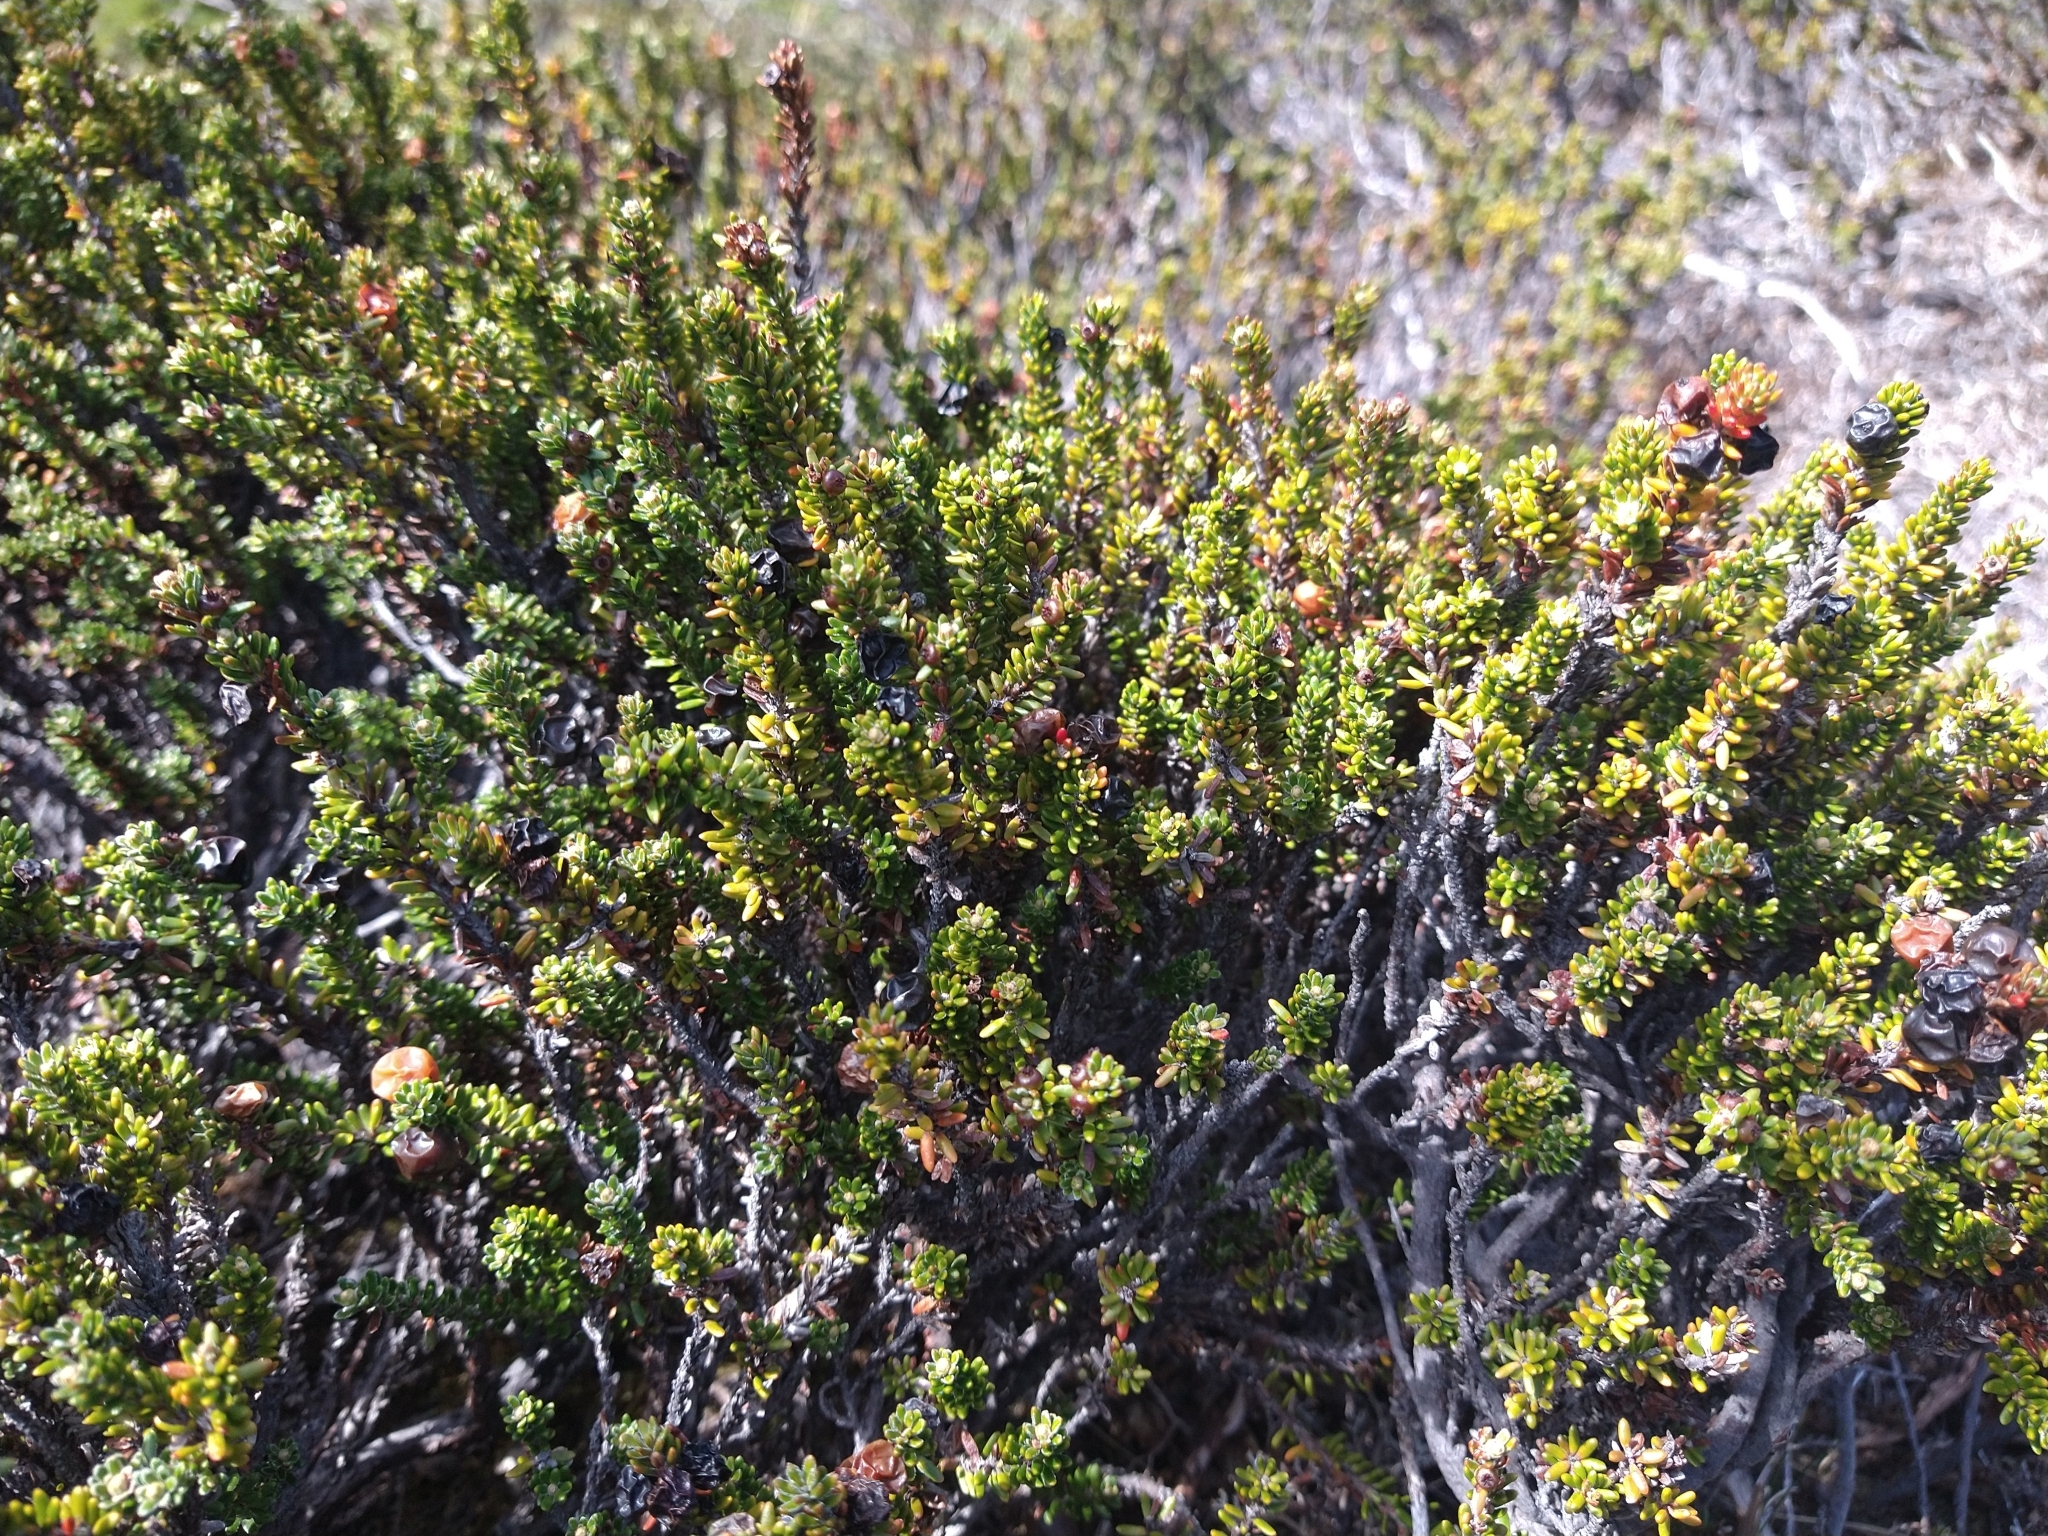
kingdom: Plantae
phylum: Tracheophyta
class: Magnoliopsida
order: Ericales
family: Ericaceae
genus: Empetrum
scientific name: Empetrum rubrum
